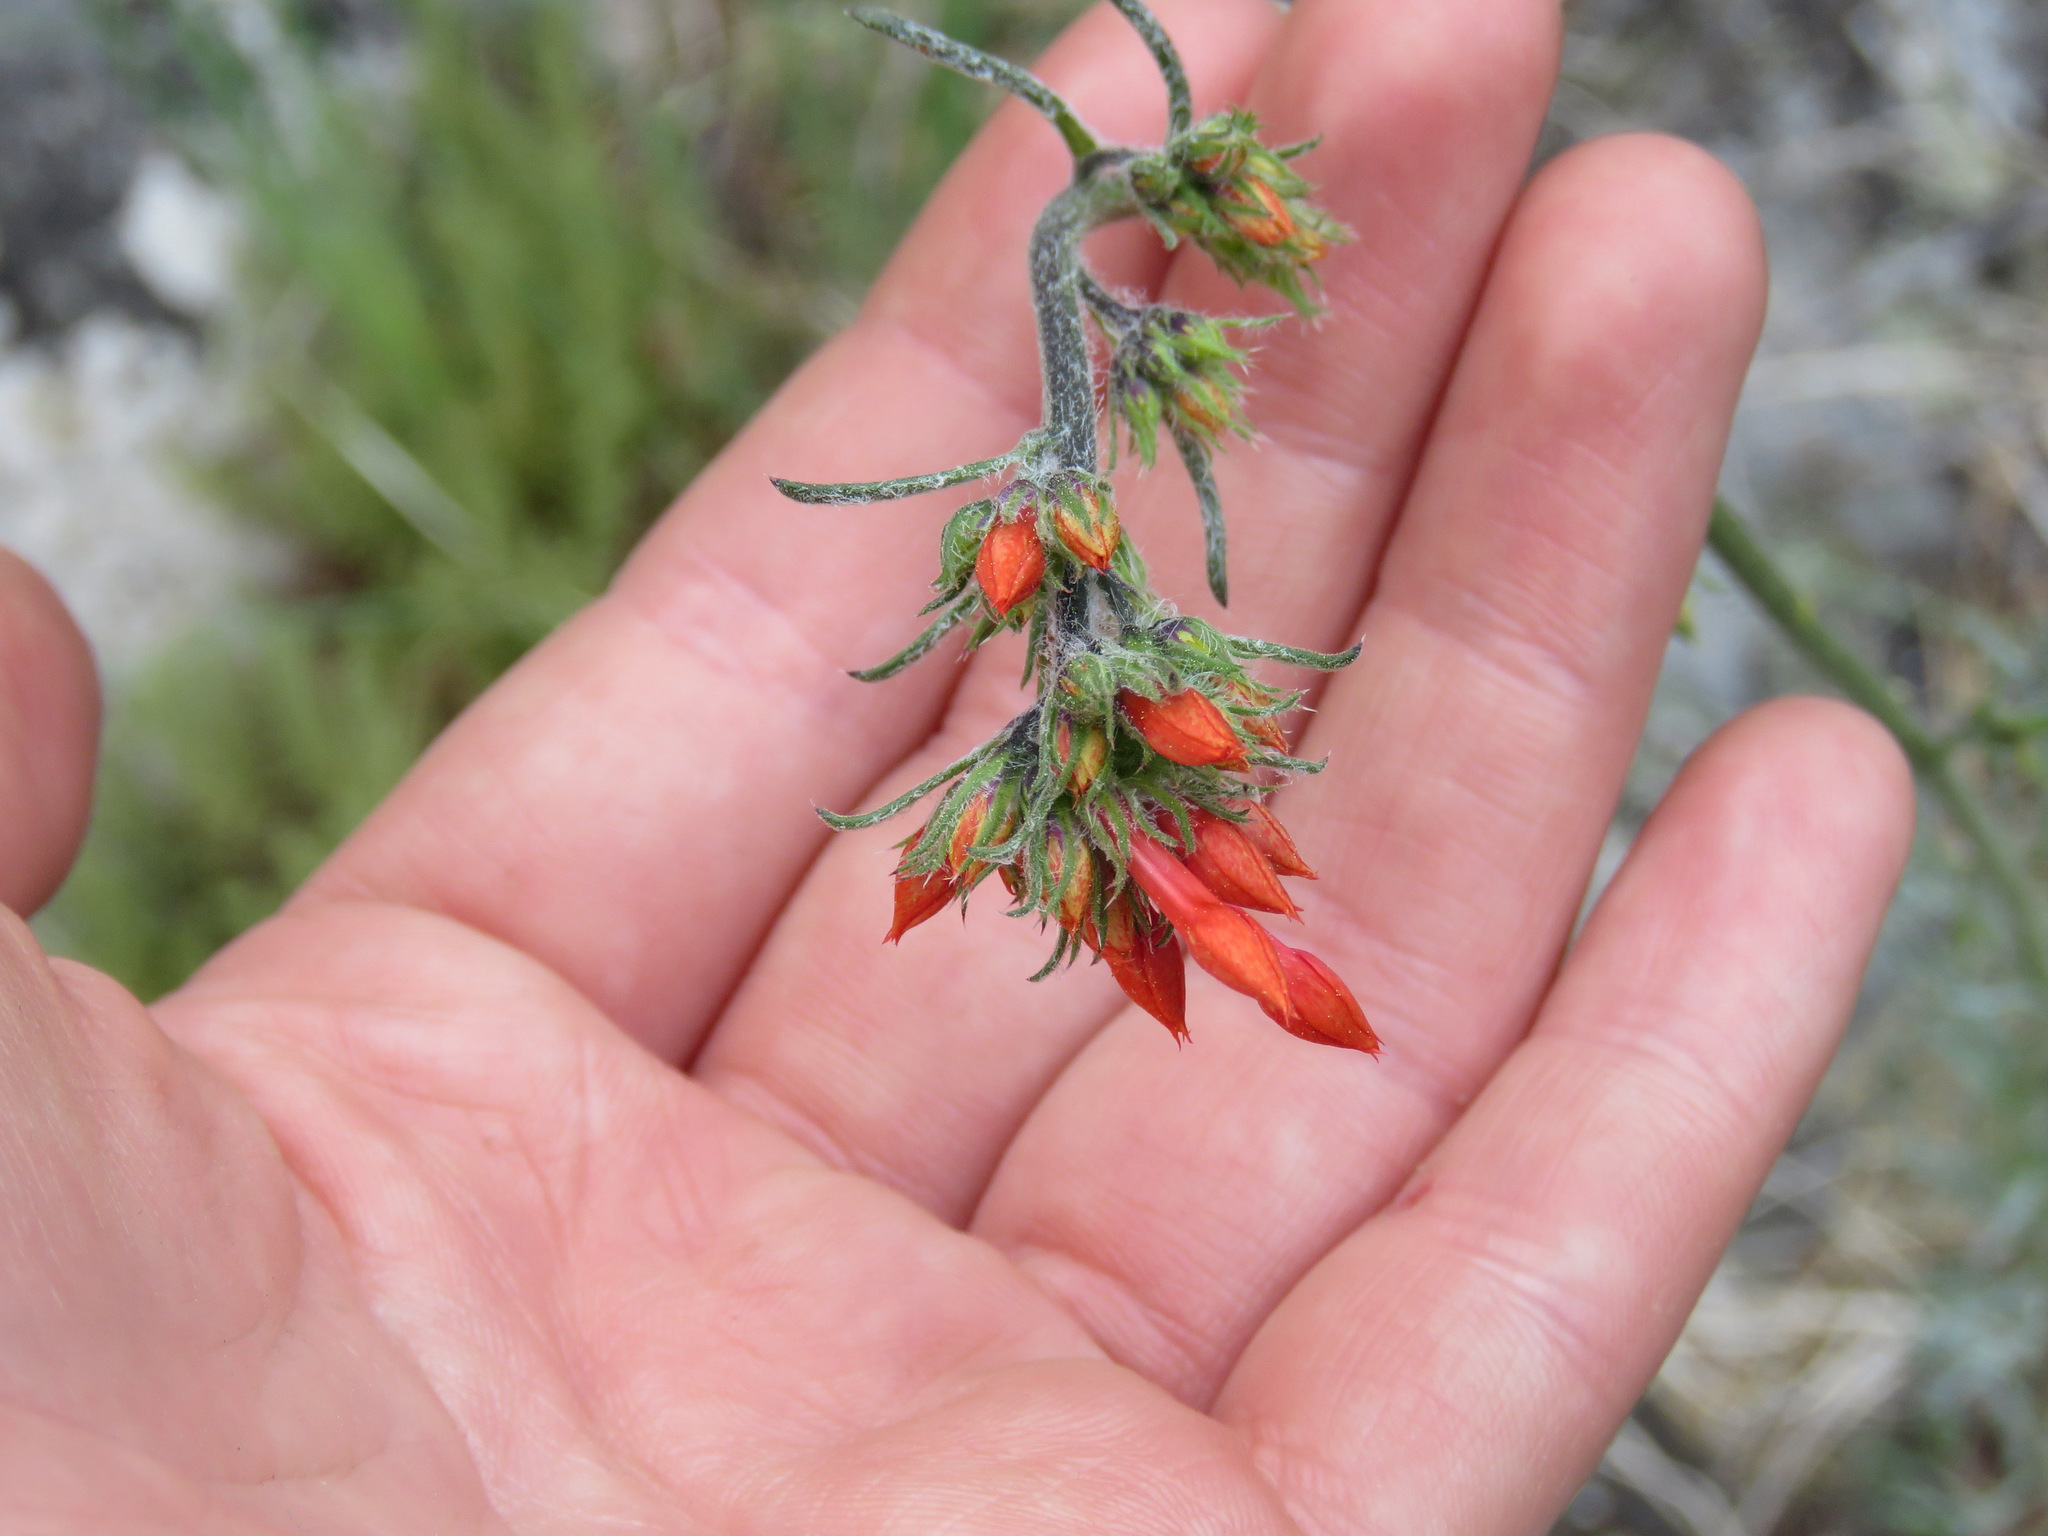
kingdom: Plantae
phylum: Tracheophyta
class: Magnoliopsida
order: Ericales
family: Polemoniaceae
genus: Ipomopsis
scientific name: Ipomopsis aggregata
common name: Scarlet gilia
